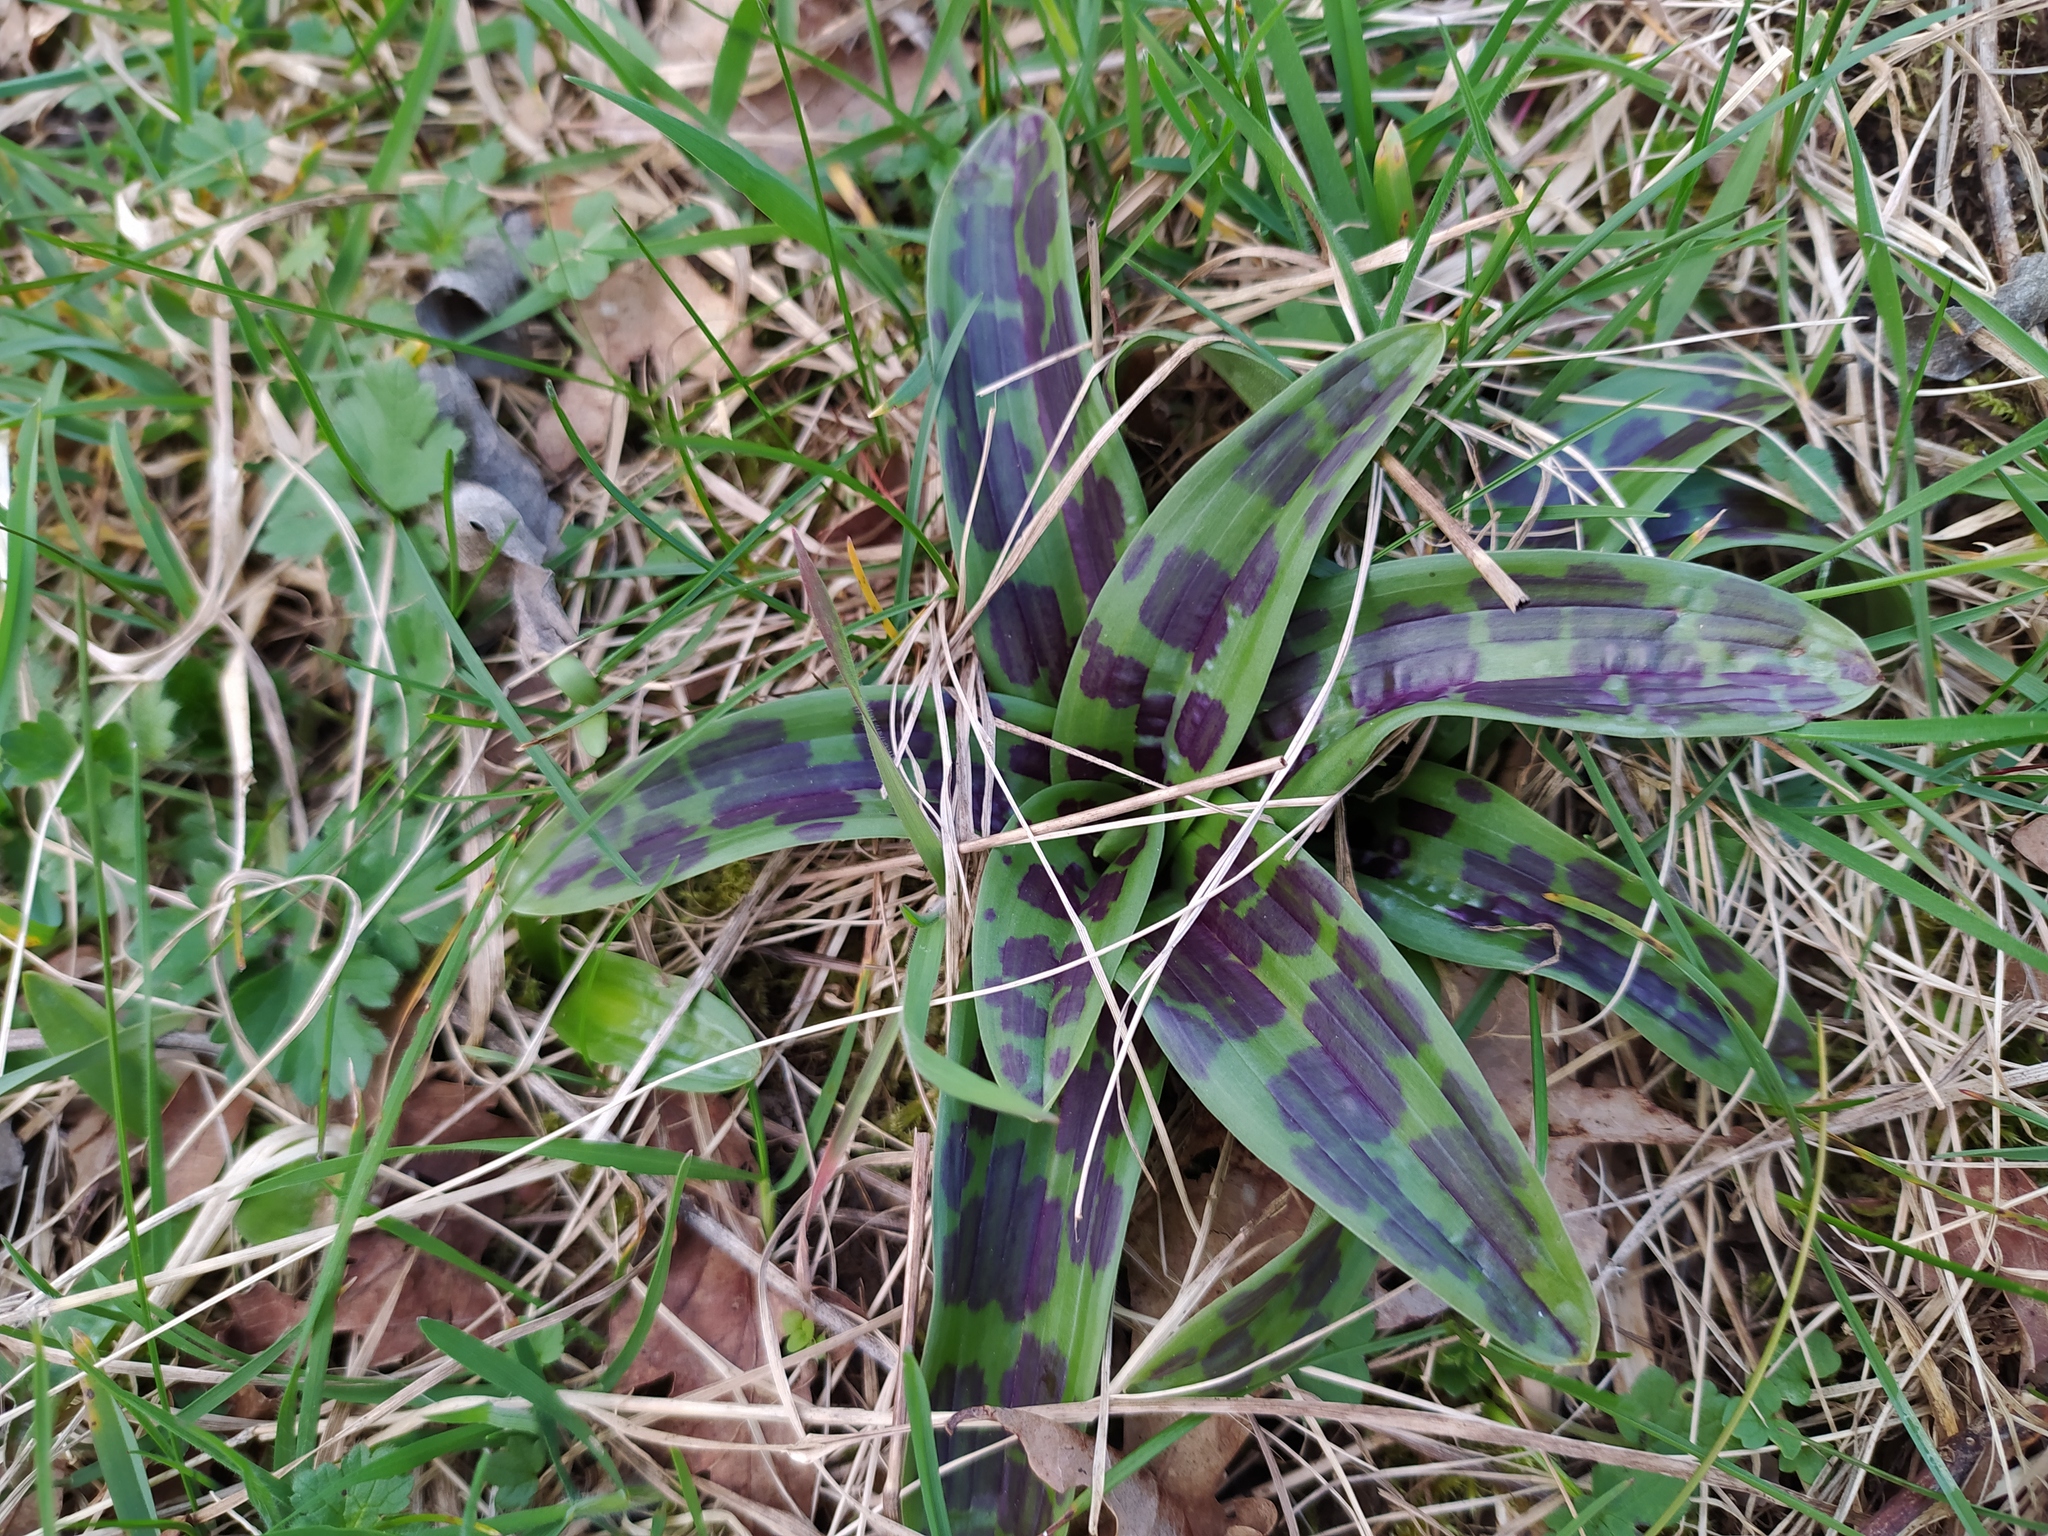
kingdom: Plantae
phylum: Tracheophyta
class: Liliopsida
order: Asparagales
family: Orchidaceae
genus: Orchis
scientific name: Orchis mascula
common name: Early-purple orchid
